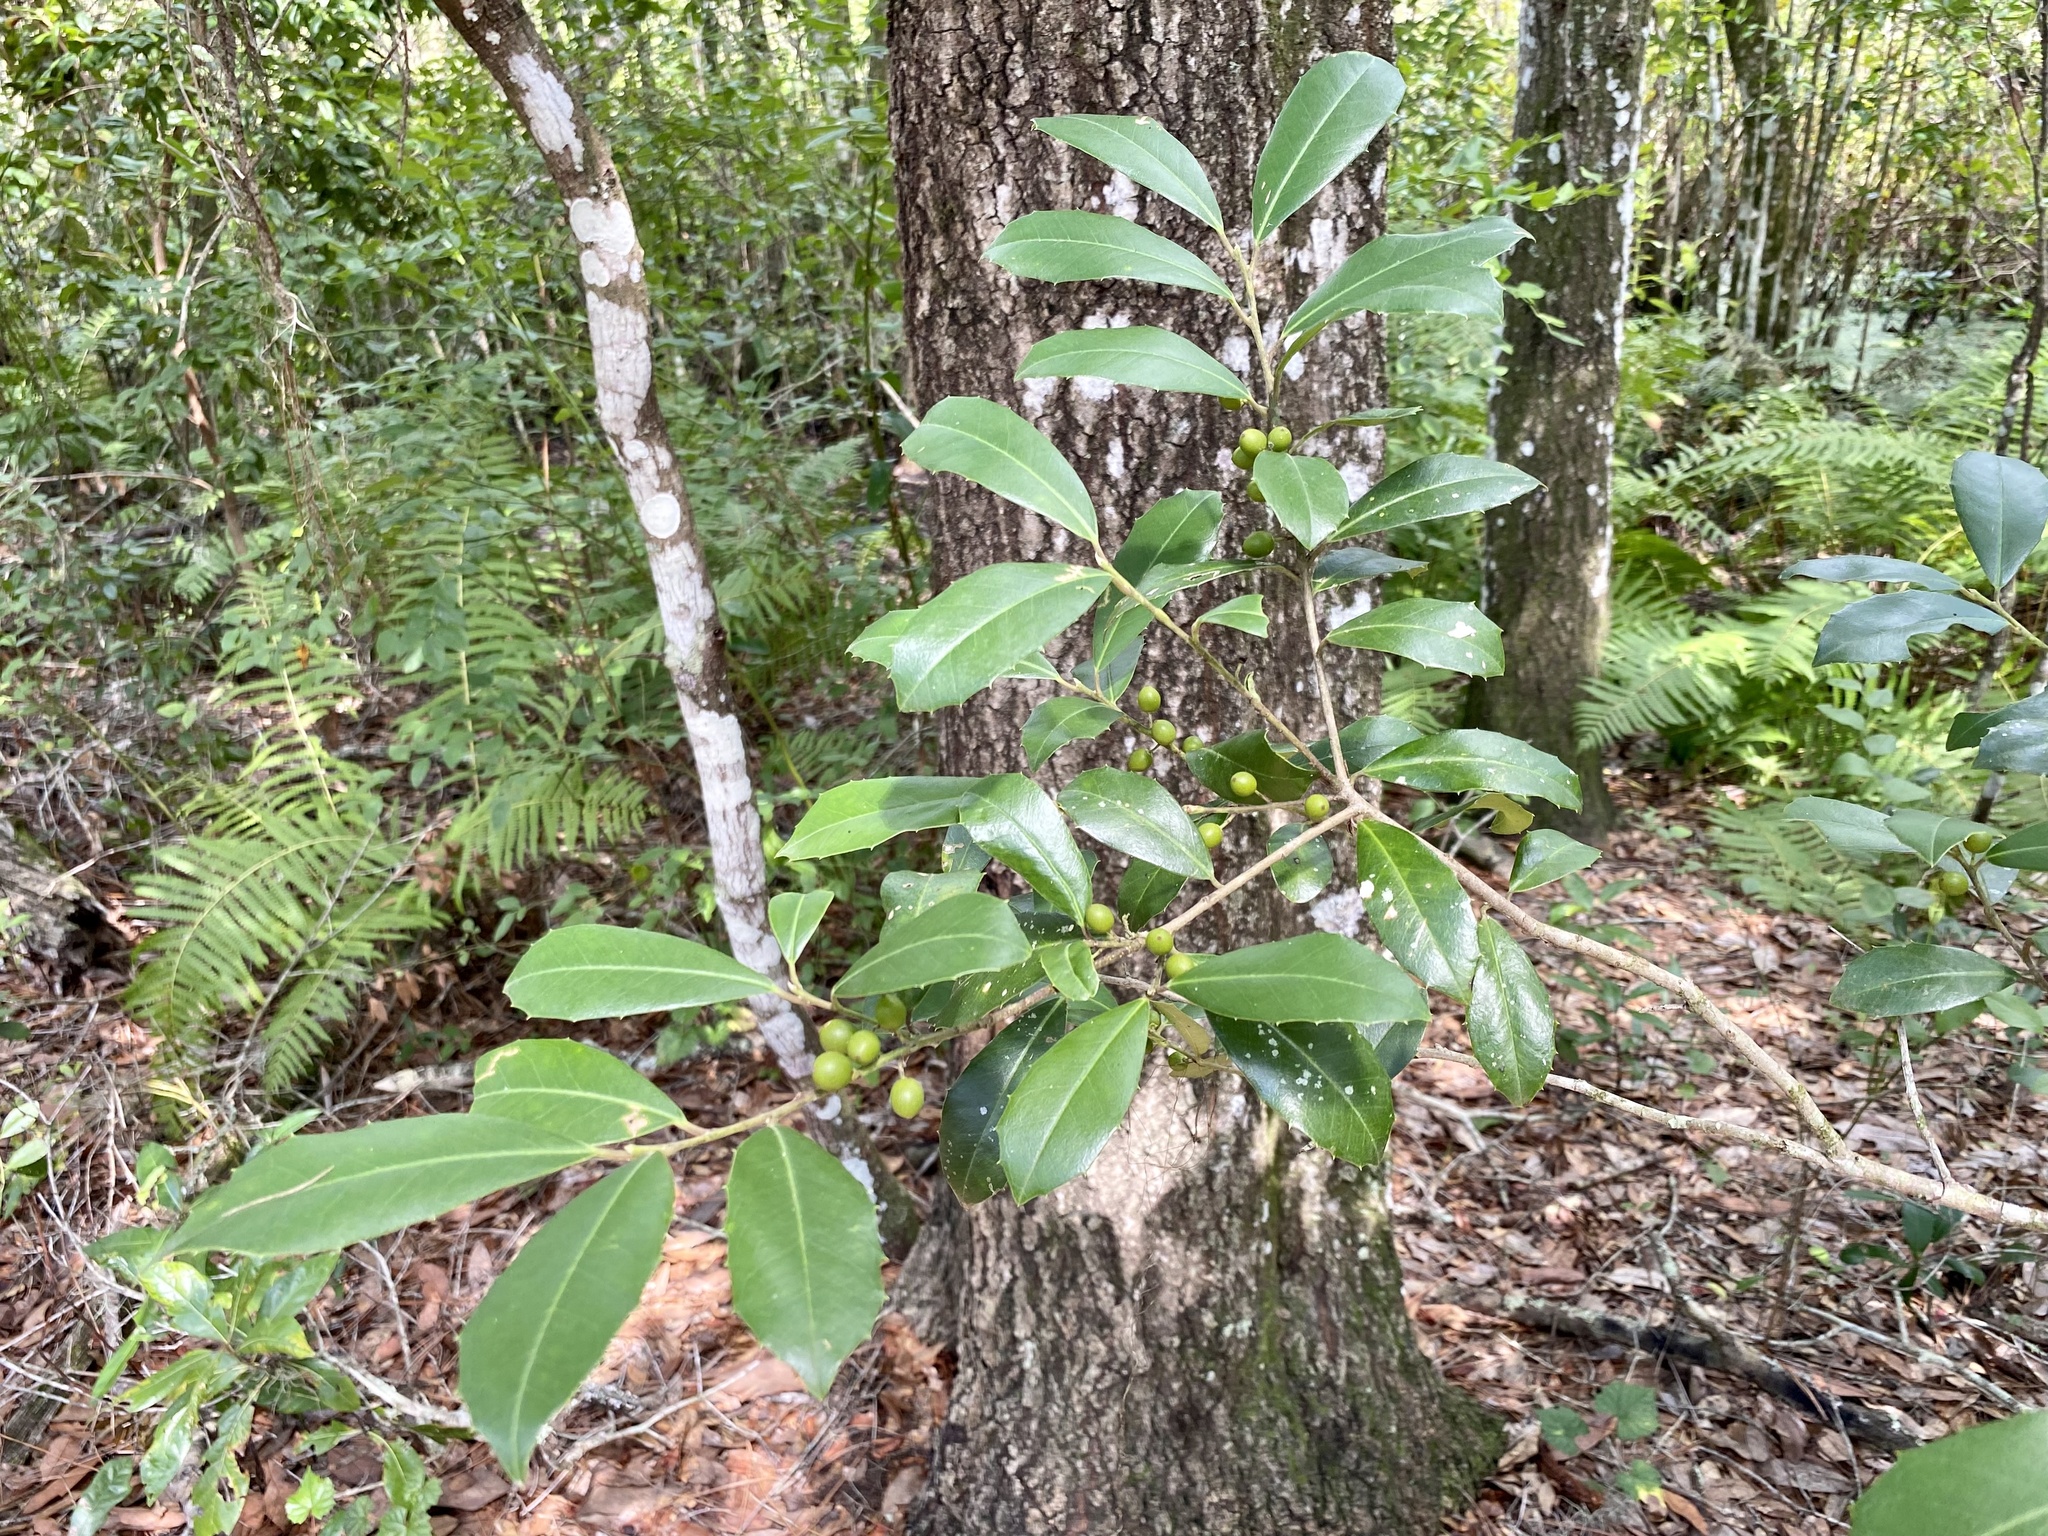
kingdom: Plantae
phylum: Tracheophyta
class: Magnoliopsida
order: Rosales
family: Rosaceae
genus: Prunus
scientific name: Prunus caroliniana
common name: Carolina laurel cherry
